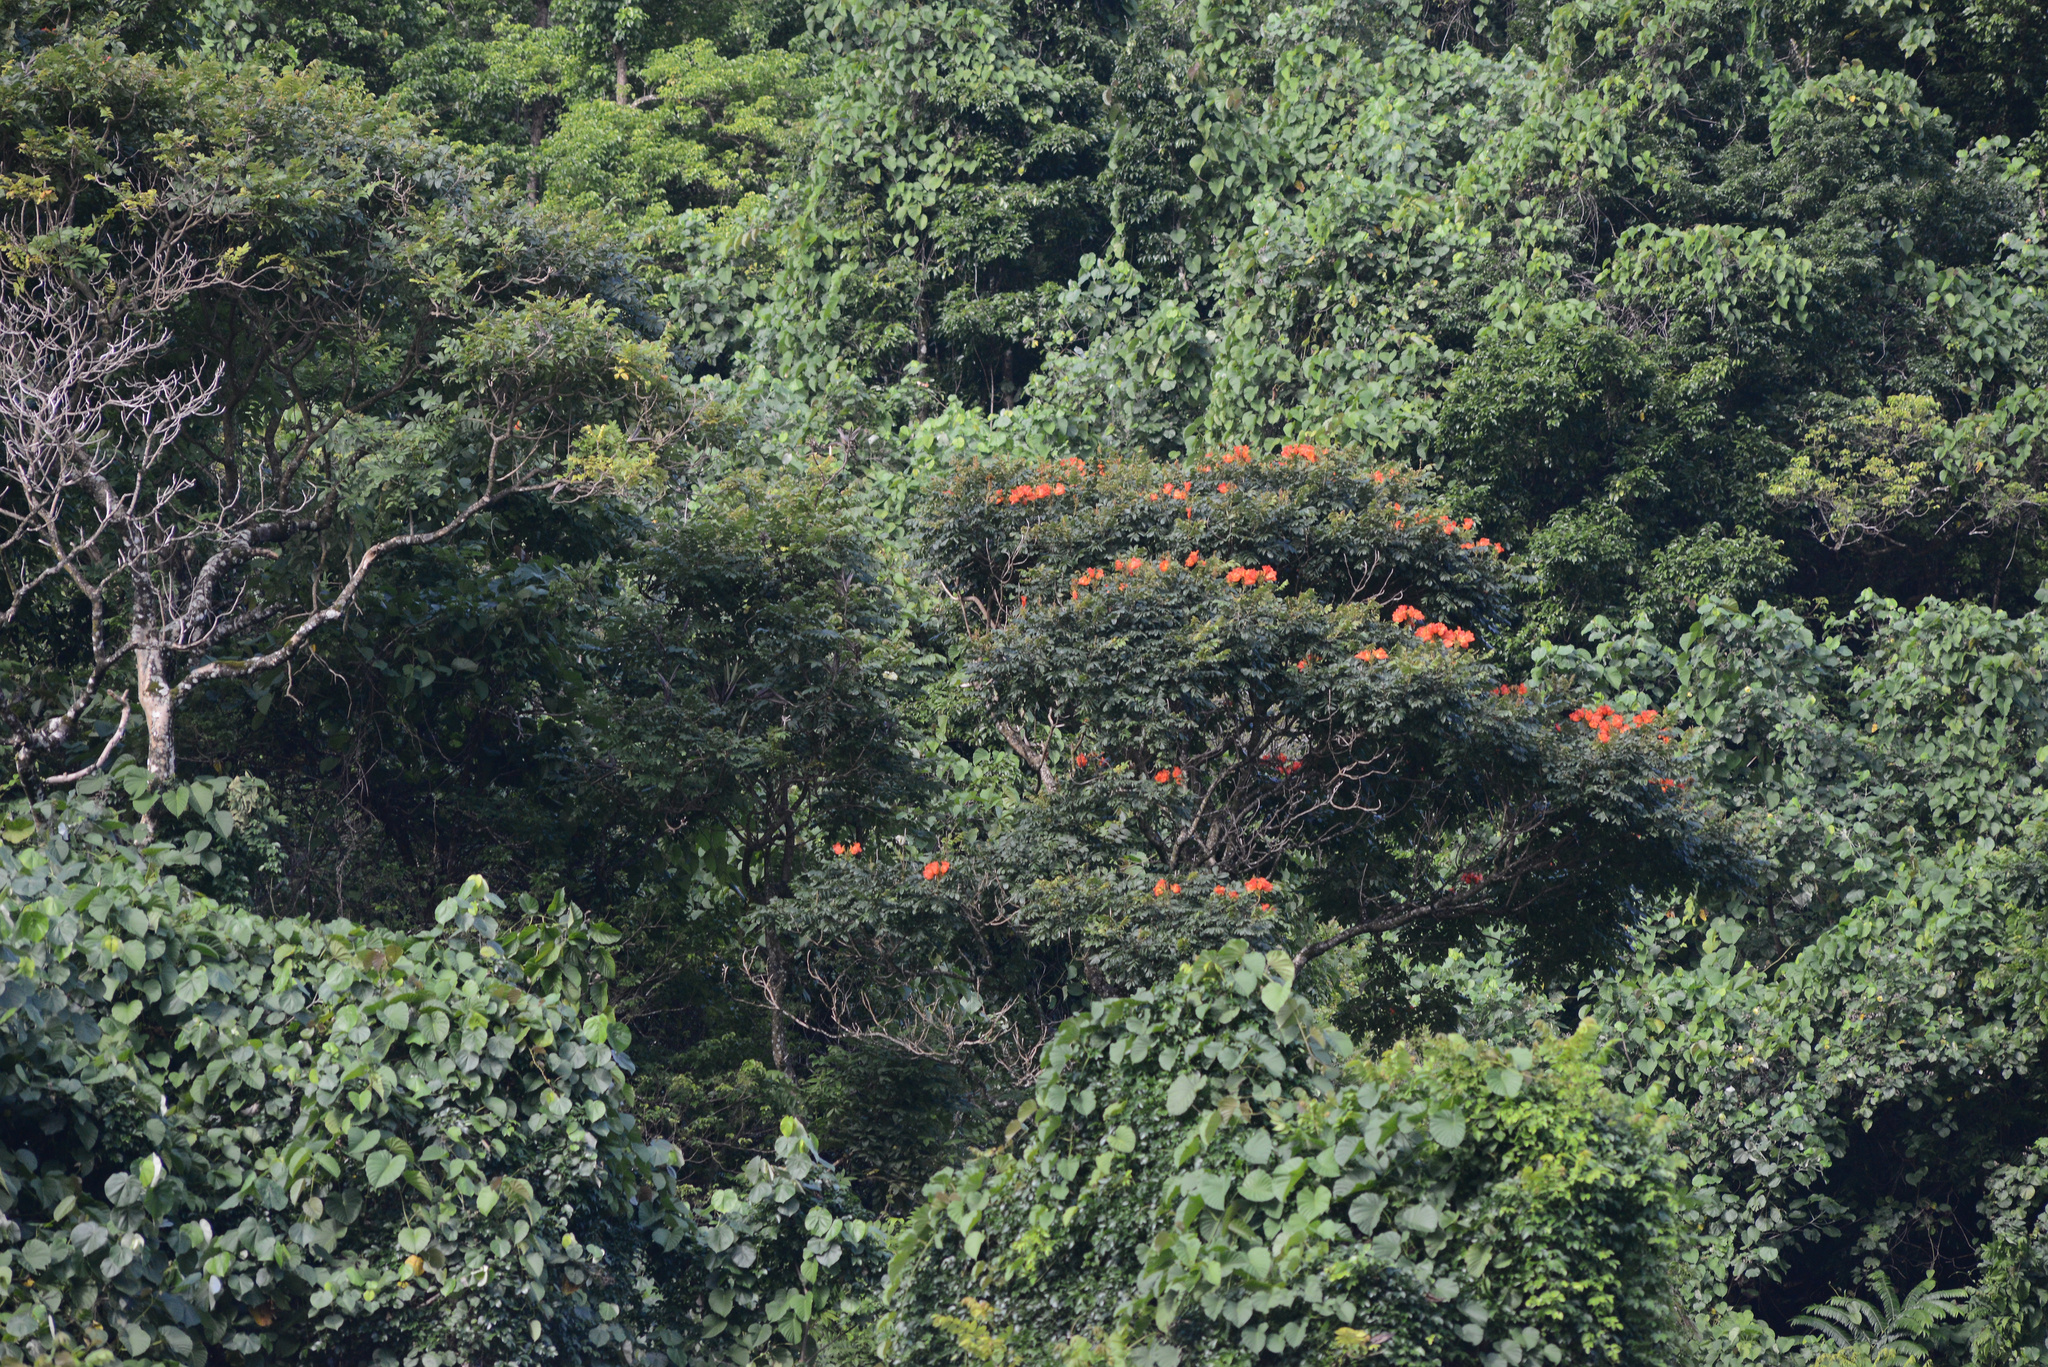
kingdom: Plantae
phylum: Tracheophyta
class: Magnoliopsida
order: Lamiales
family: Bignoniaceae
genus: Spathodea
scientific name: Spathodea campanulata
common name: African tuliptree
